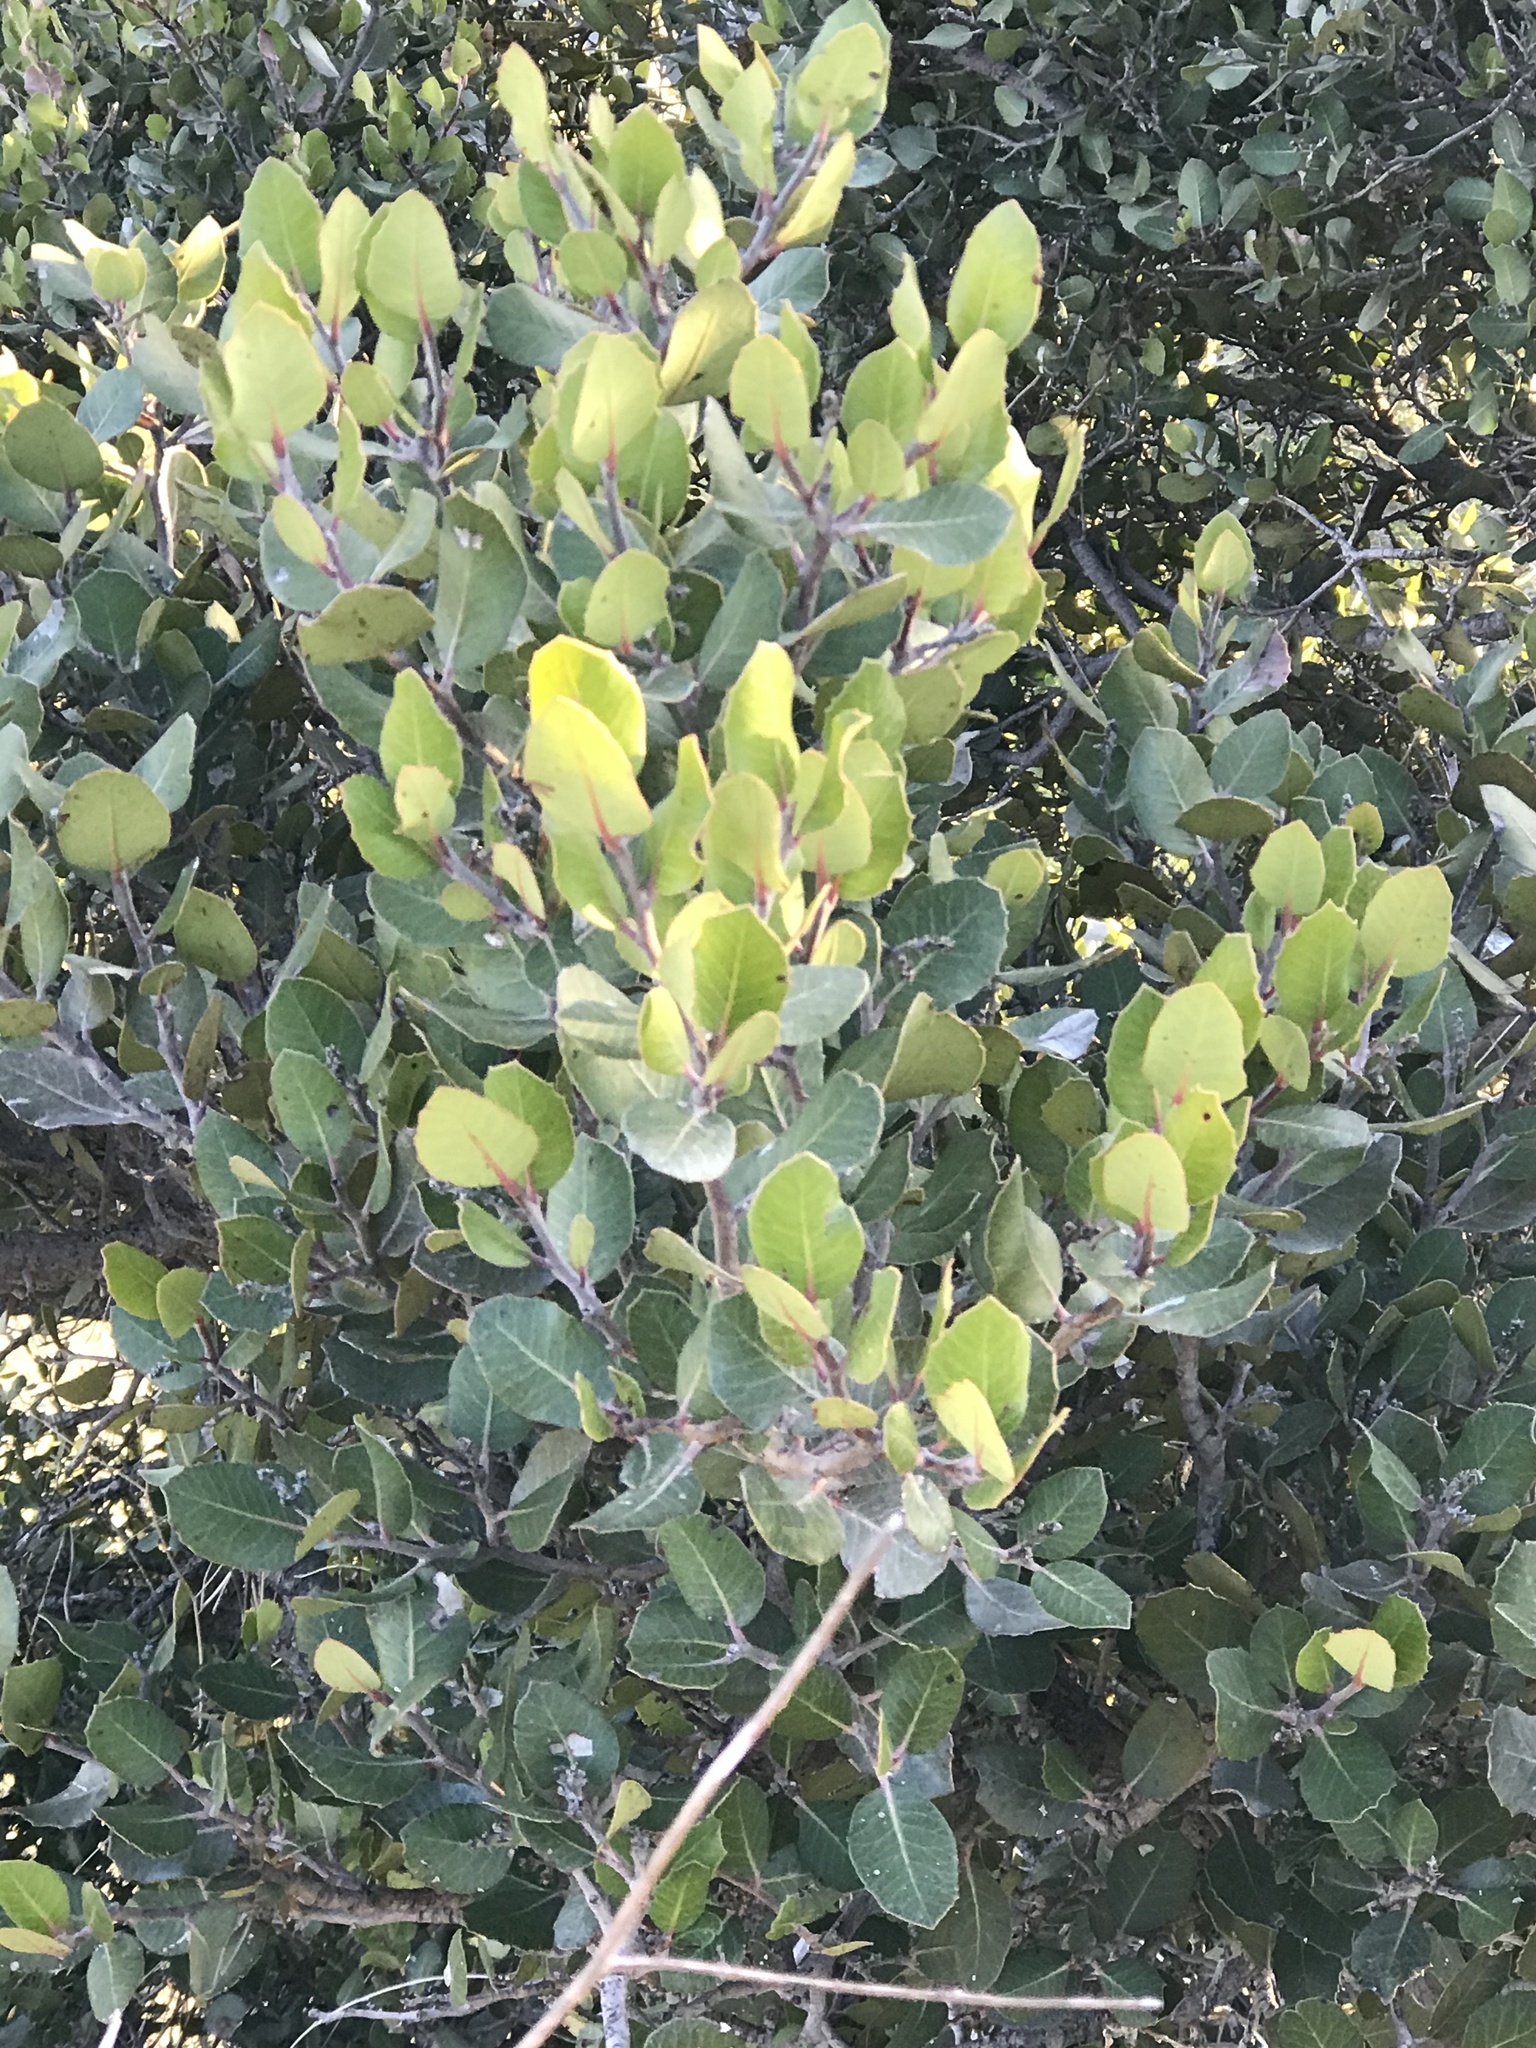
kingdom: Plantae
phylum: Tracheophyta
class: Magnoliopsida
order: Sapindales
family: Anacardiaceae
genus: Rhus
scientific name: Rhus integrifolia
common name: Lemonade sumac
